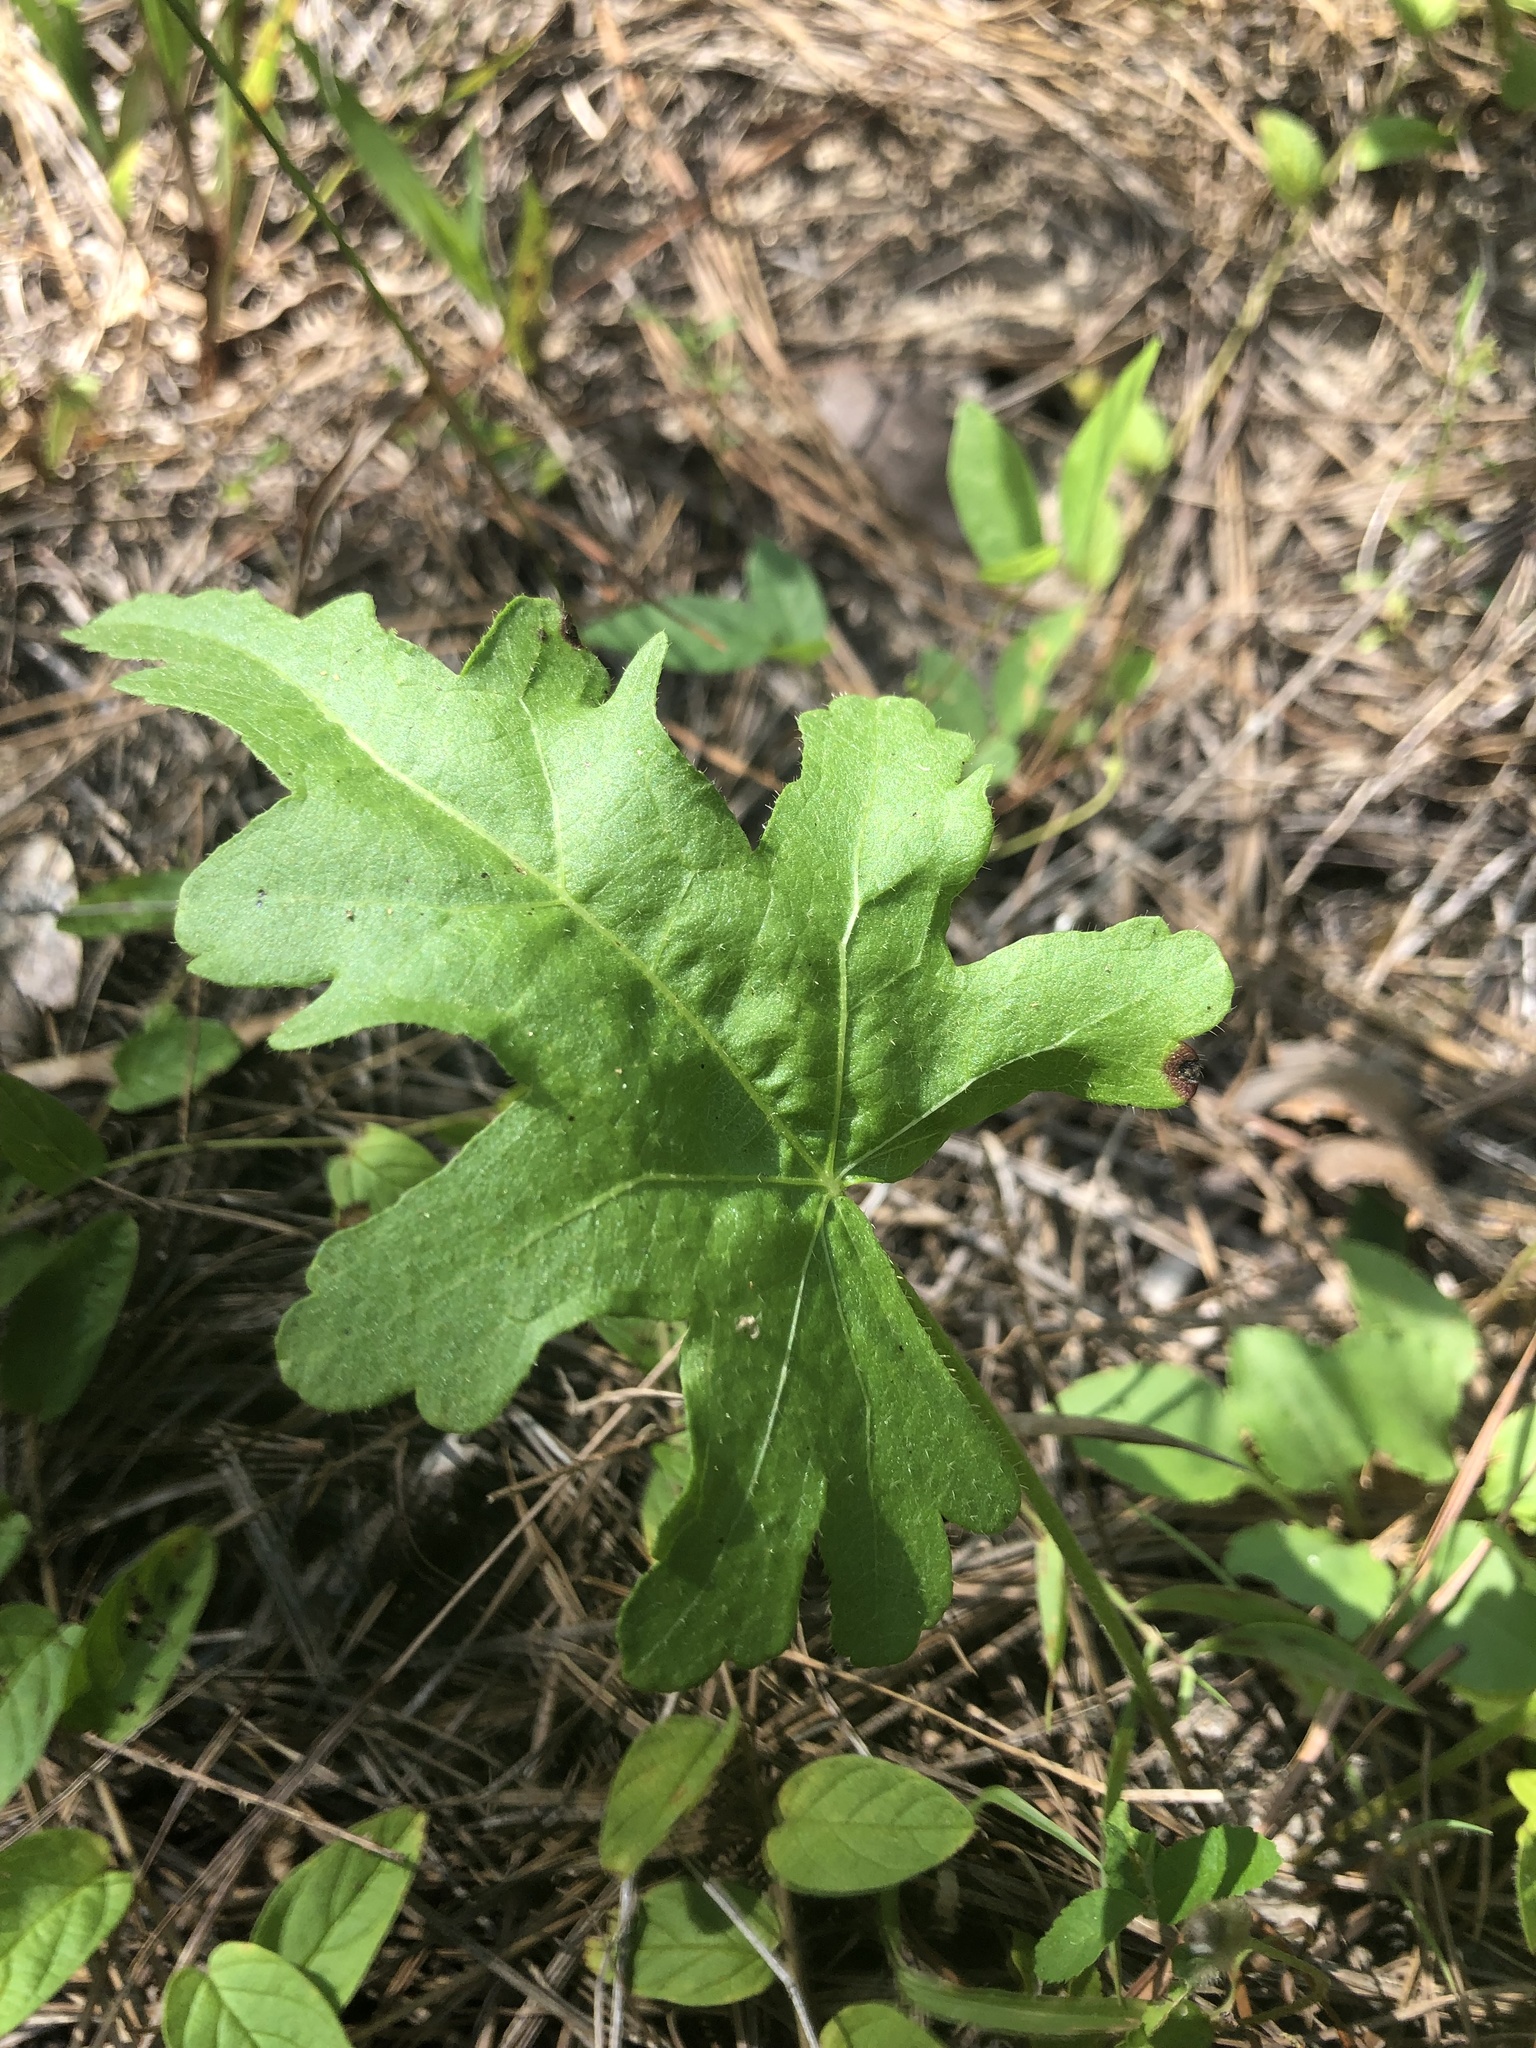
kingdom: Plantae
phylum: Tracheophyta
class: Magnoliopsida
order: Malvales
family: Malvaceae
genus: Callirhoe
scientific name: Callirhoe triangulata
